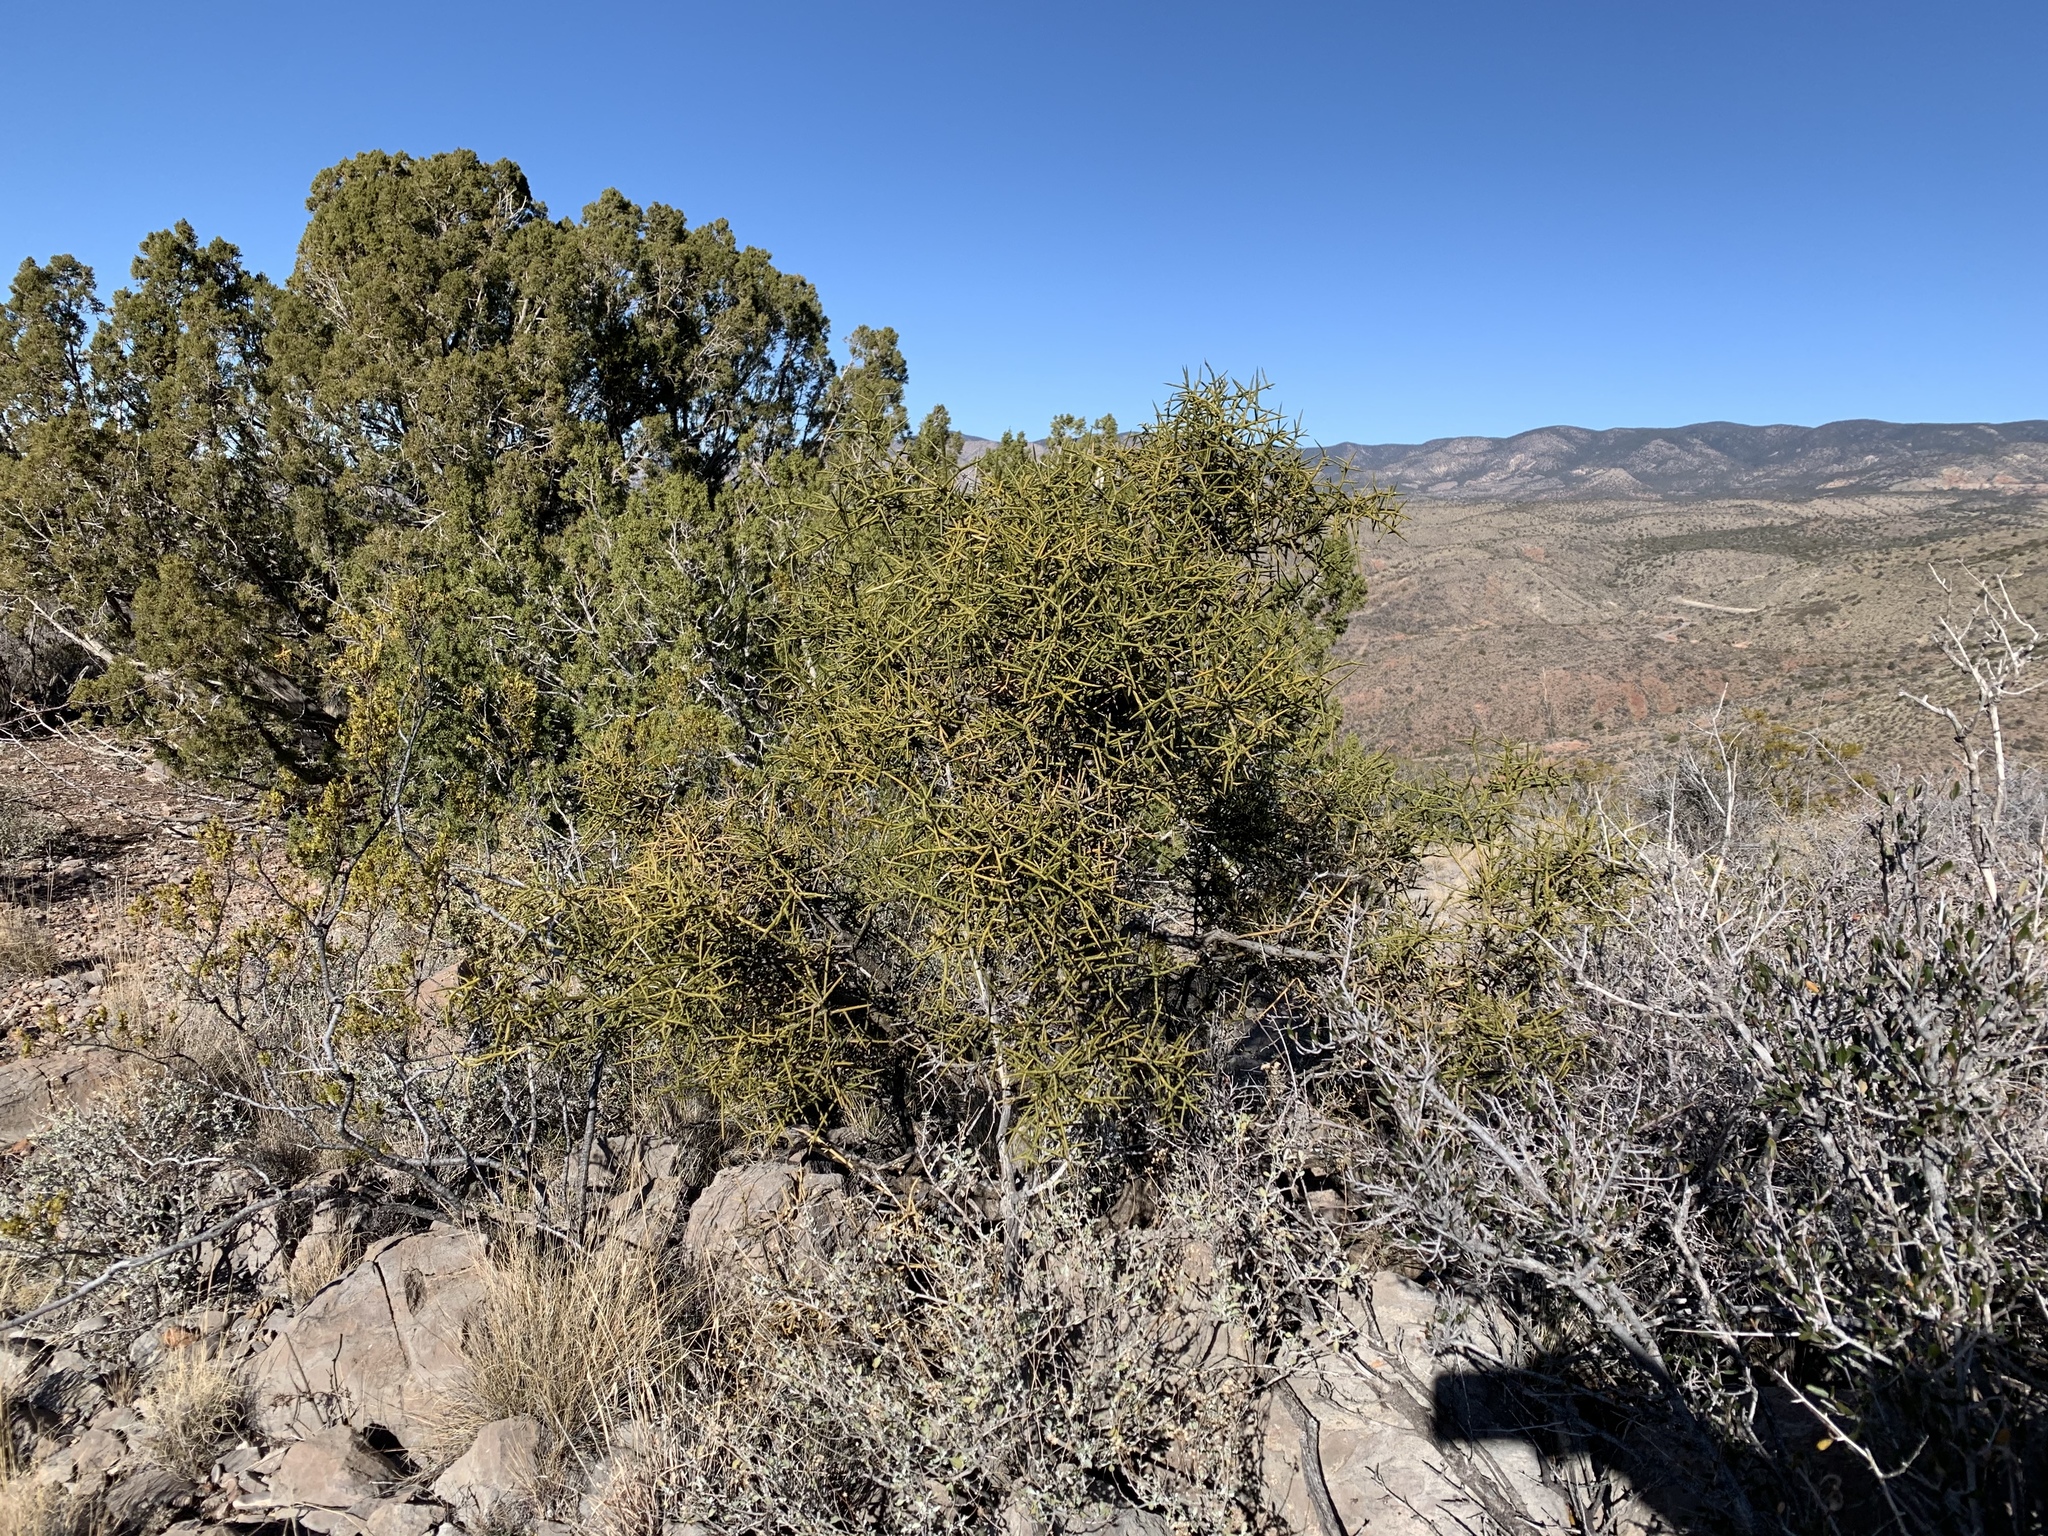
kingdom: Plantae
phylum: Tracheophyta
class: Magnoliopsida
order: Brassicales
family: Koeberliniaceae
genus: Koeberlinia
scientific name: Koeberlinia spinosa
